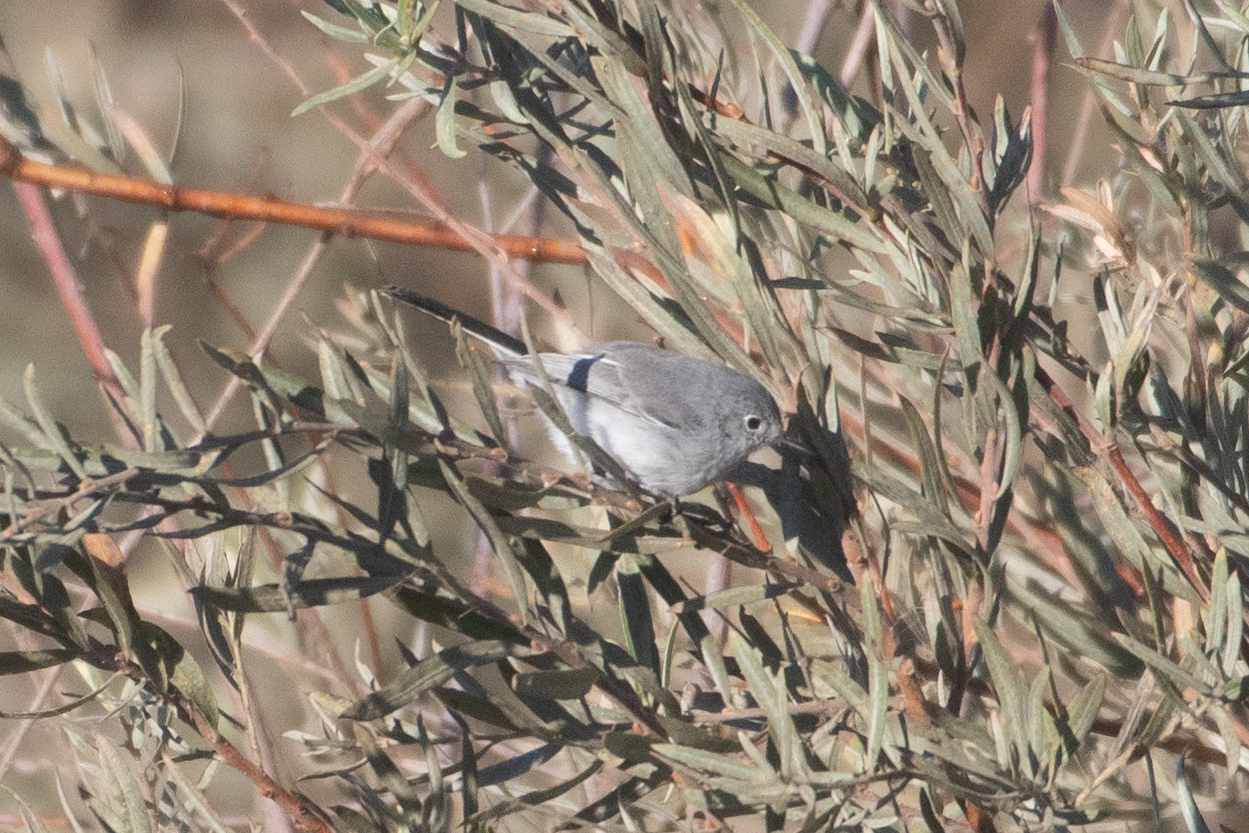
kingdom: Animalia
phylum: Chordata
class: Aves
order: Passeriformes
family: Polioptilidae
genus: Polioptila
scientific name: Polioptila caerulea
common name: Blue-gray gnatcatcher
